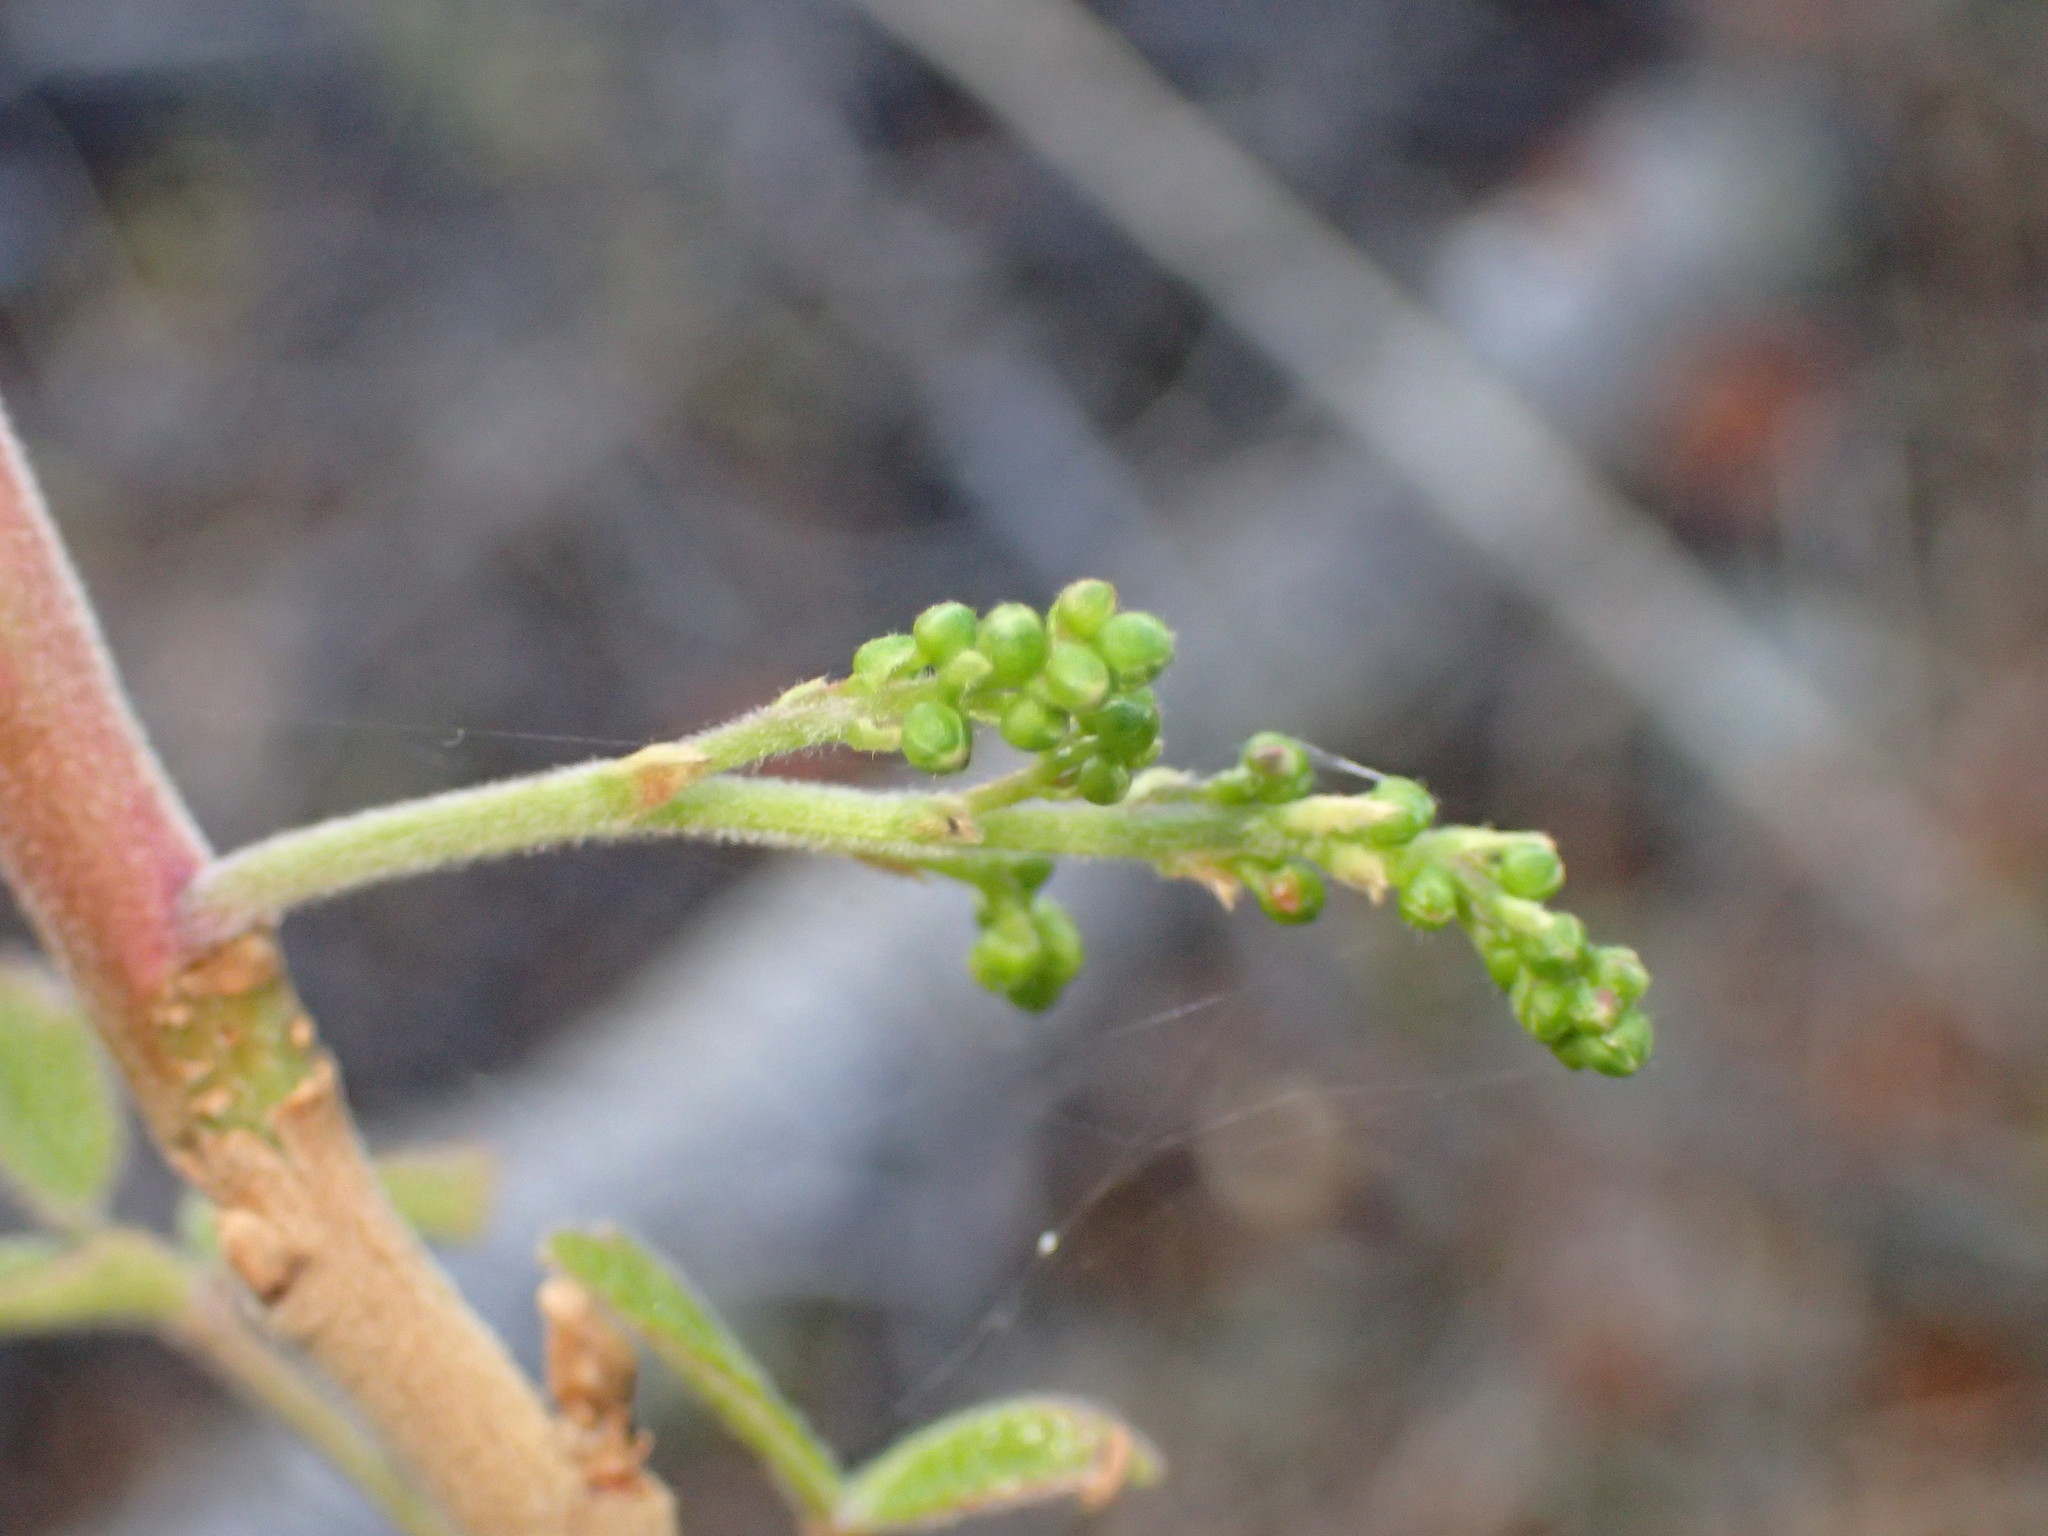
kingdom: Plantae
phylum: Tracheophyta
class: Magnoliopsida
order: Sapindales
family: Anacardiaceae
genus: Toxicodendron
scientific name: Toxicodendron diversilobum
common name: Pacific poison-oak
